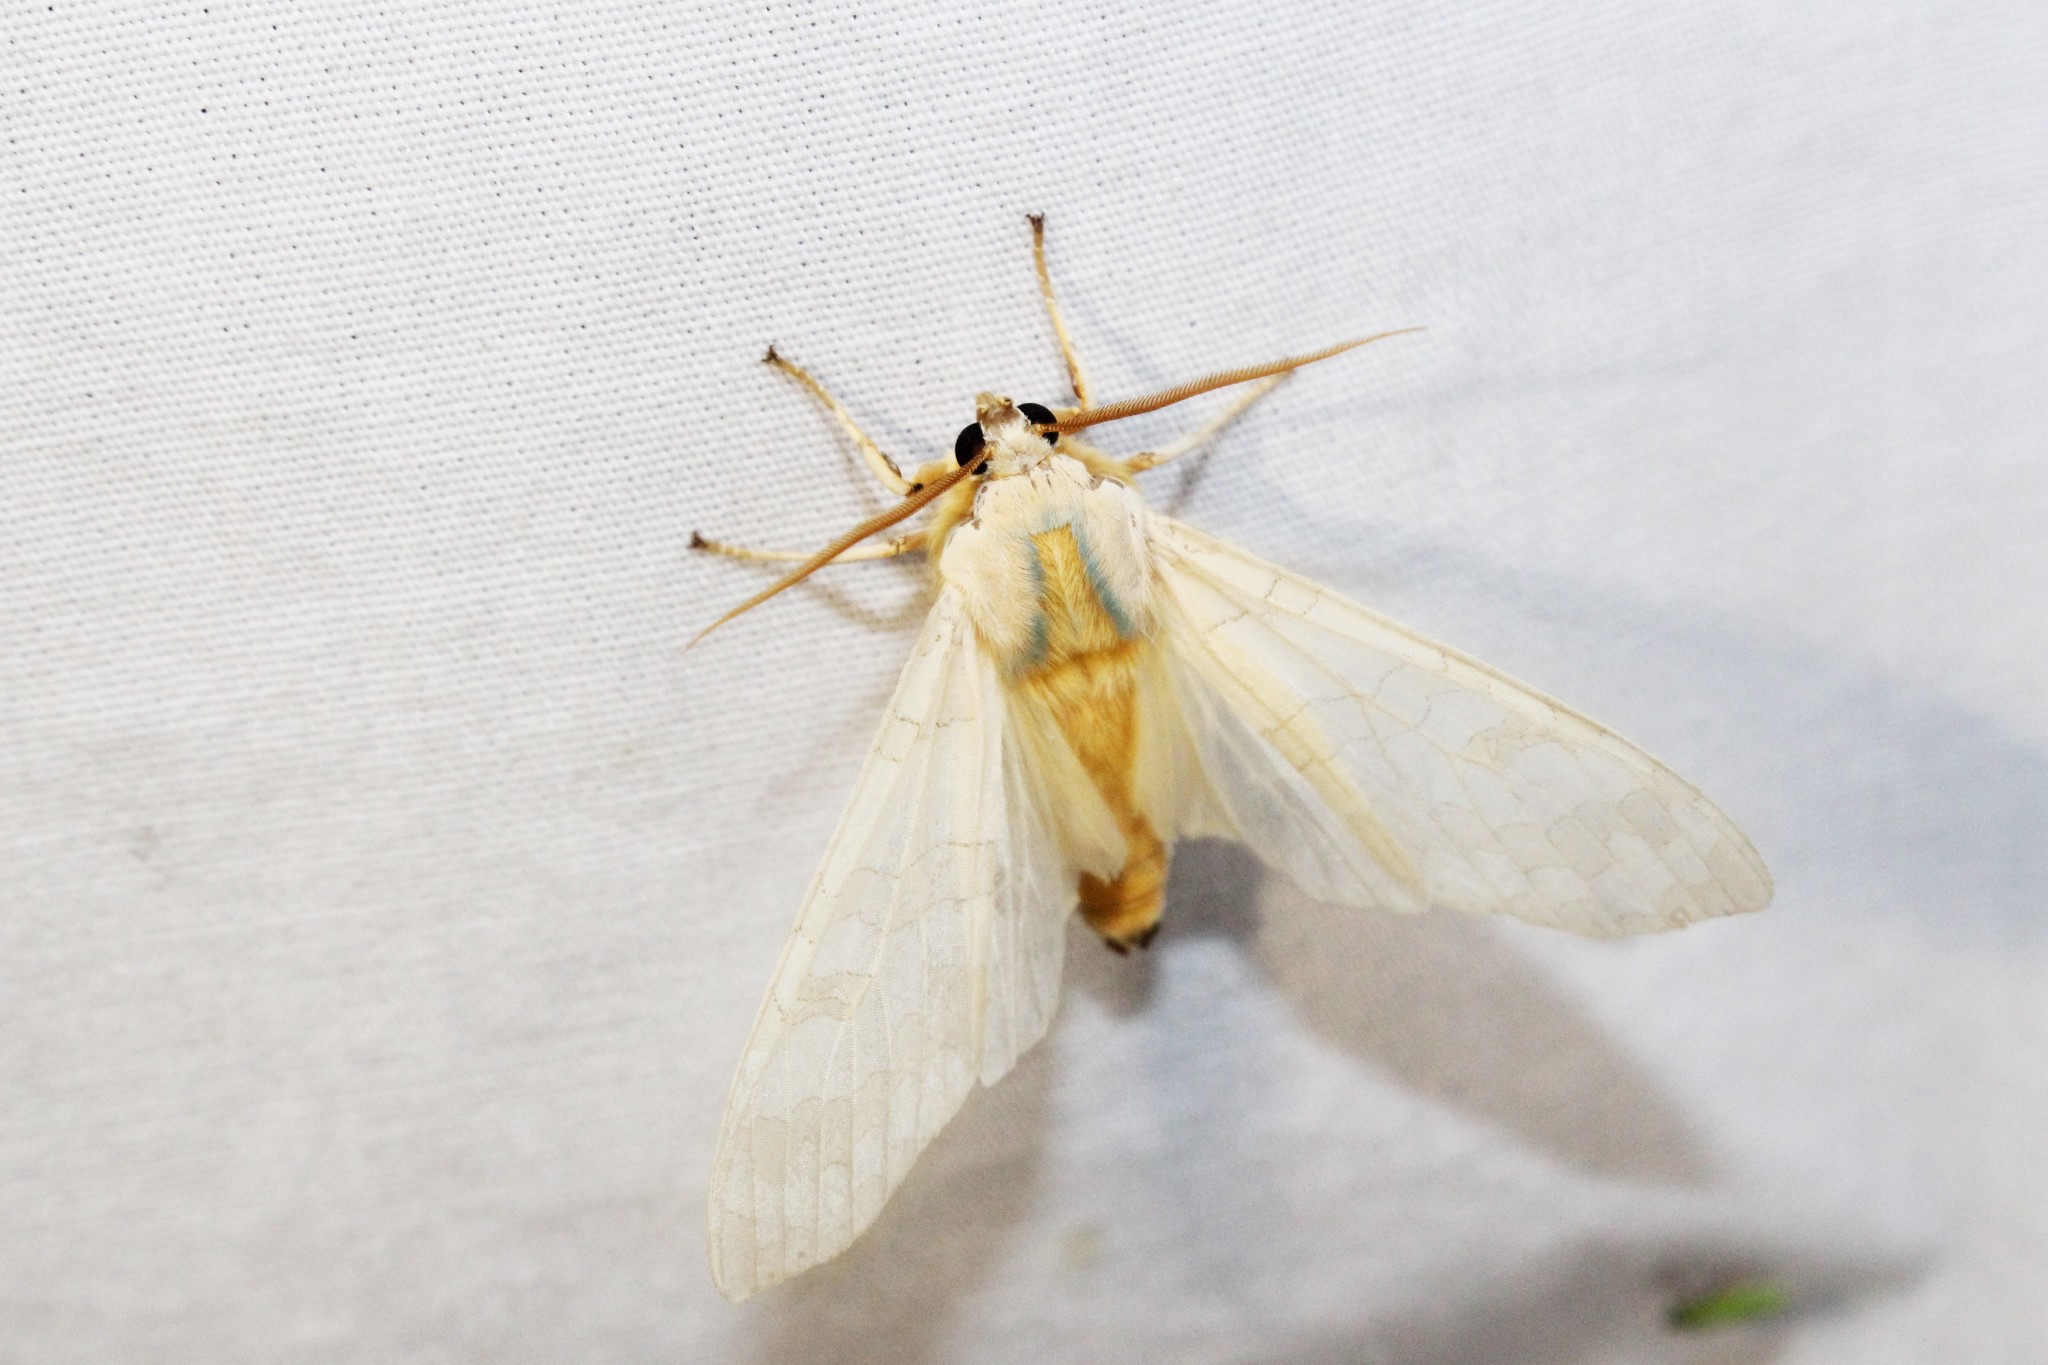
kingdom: Animalia
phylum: Arthropoda
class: Insecta
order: Lepidoptera
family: Erebidae
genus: Halysidota
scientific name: Halysidota tessellaris
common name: Banded tussock moth
